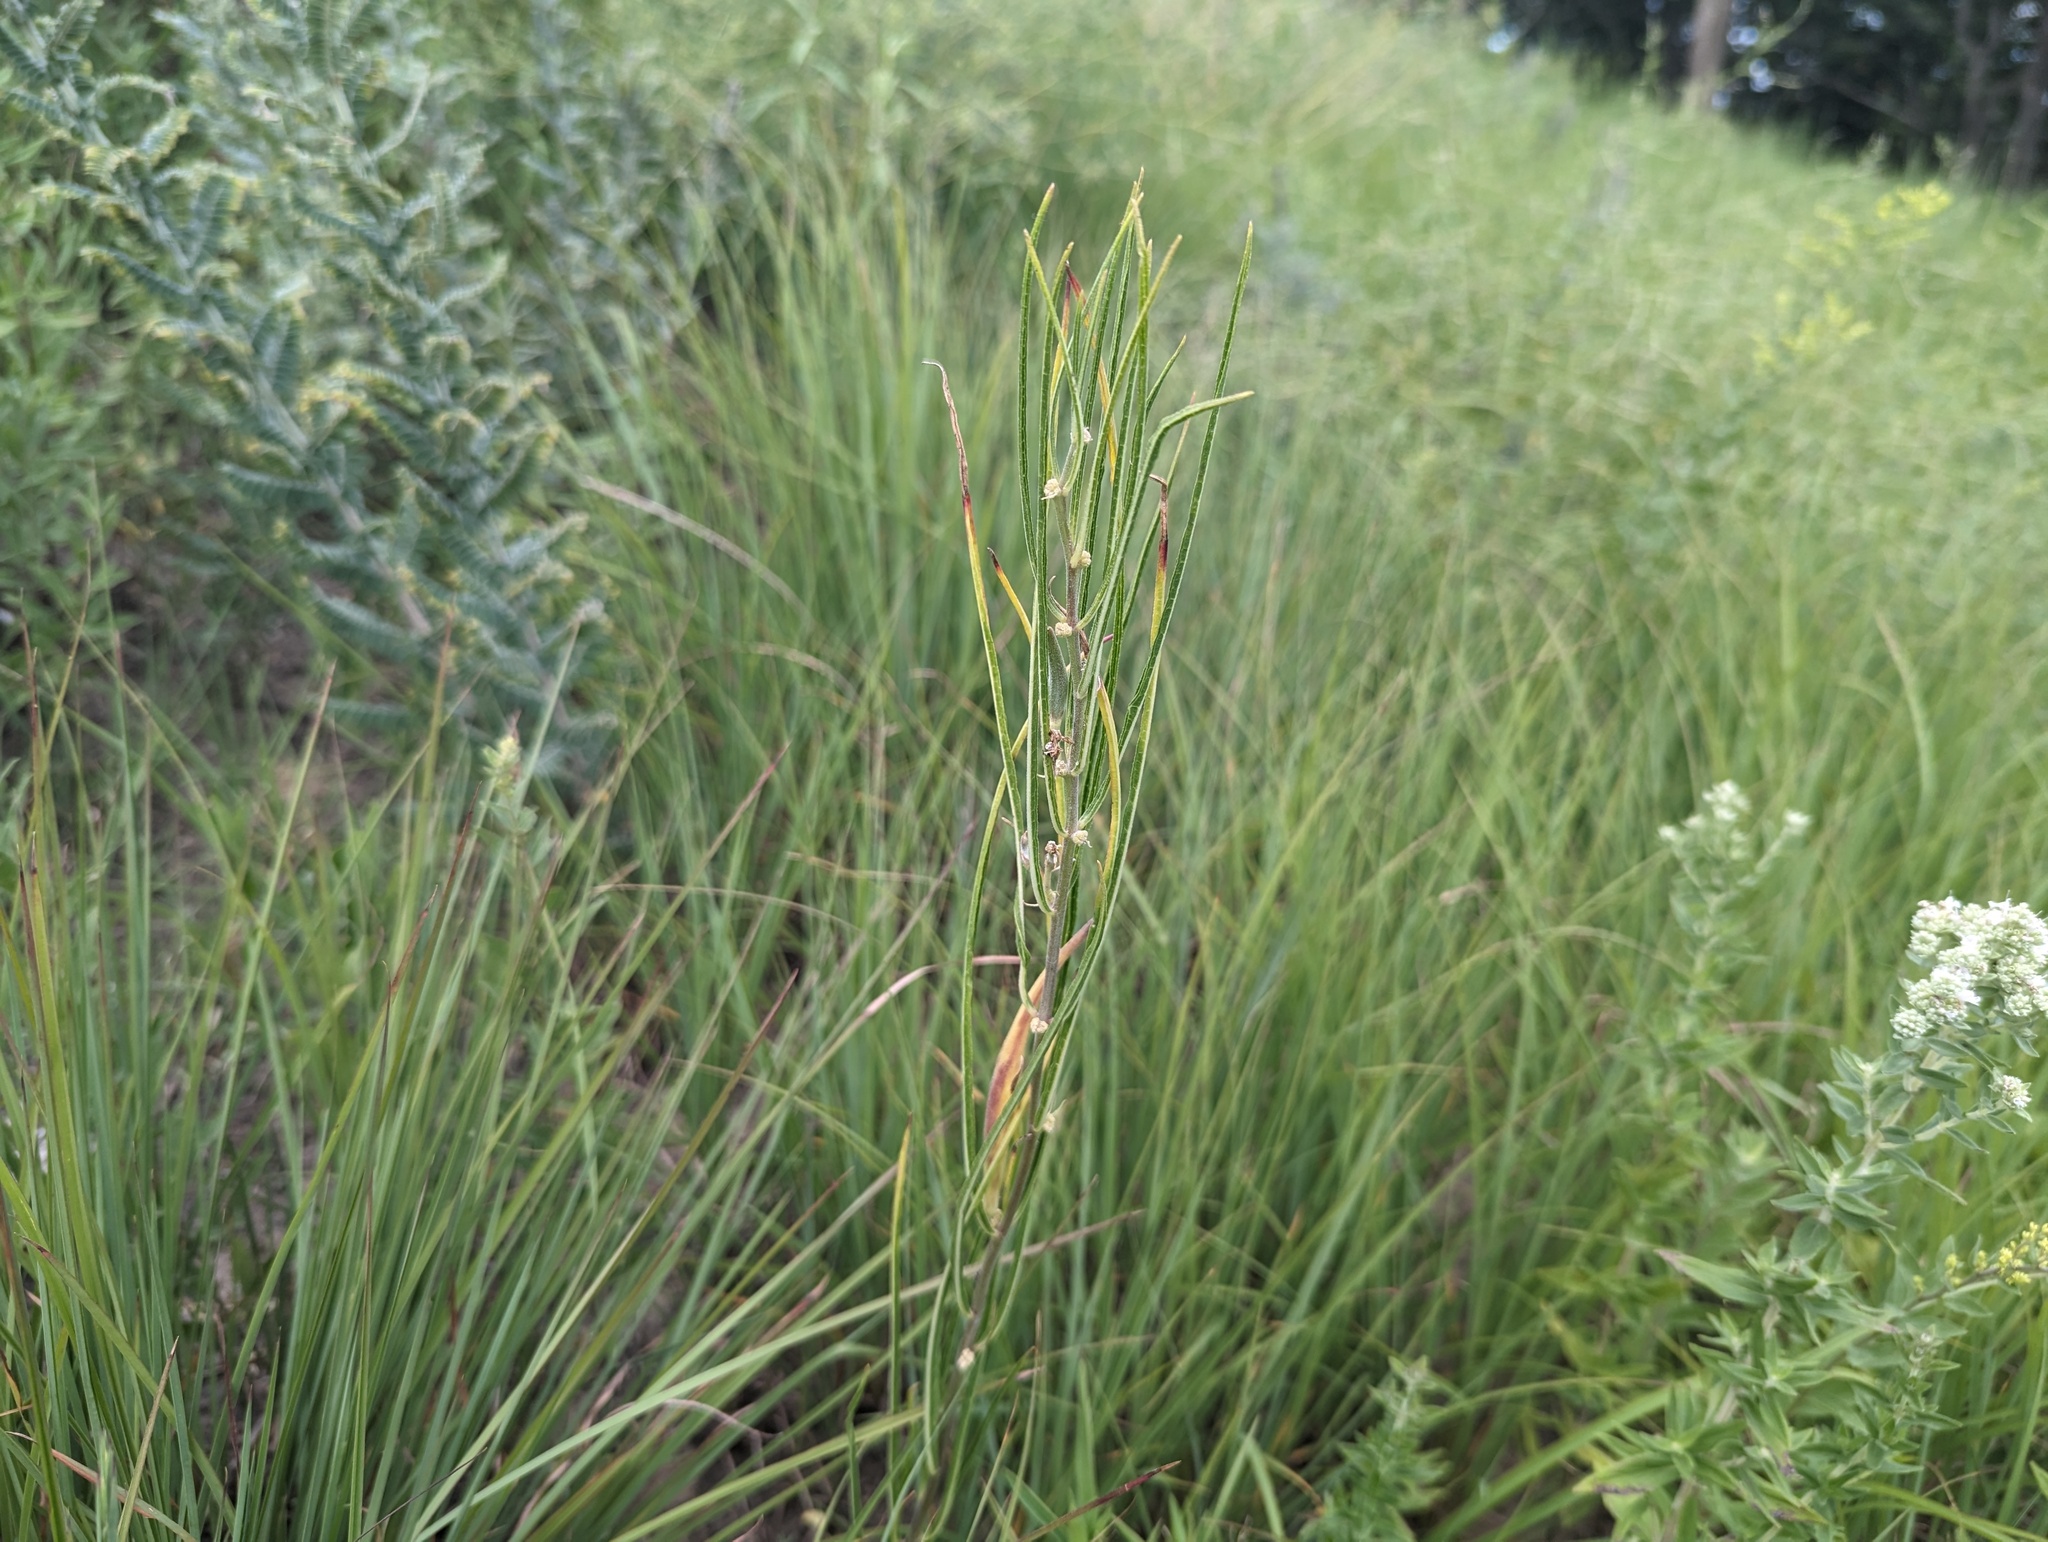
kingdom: Plantae
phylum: Tracheophyta
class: Magnoliopsida
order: Gentianales
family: Apocynaceae
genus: Asclepias
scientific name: Asclepias stenophylla
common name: Narrow-leaf milkweed
